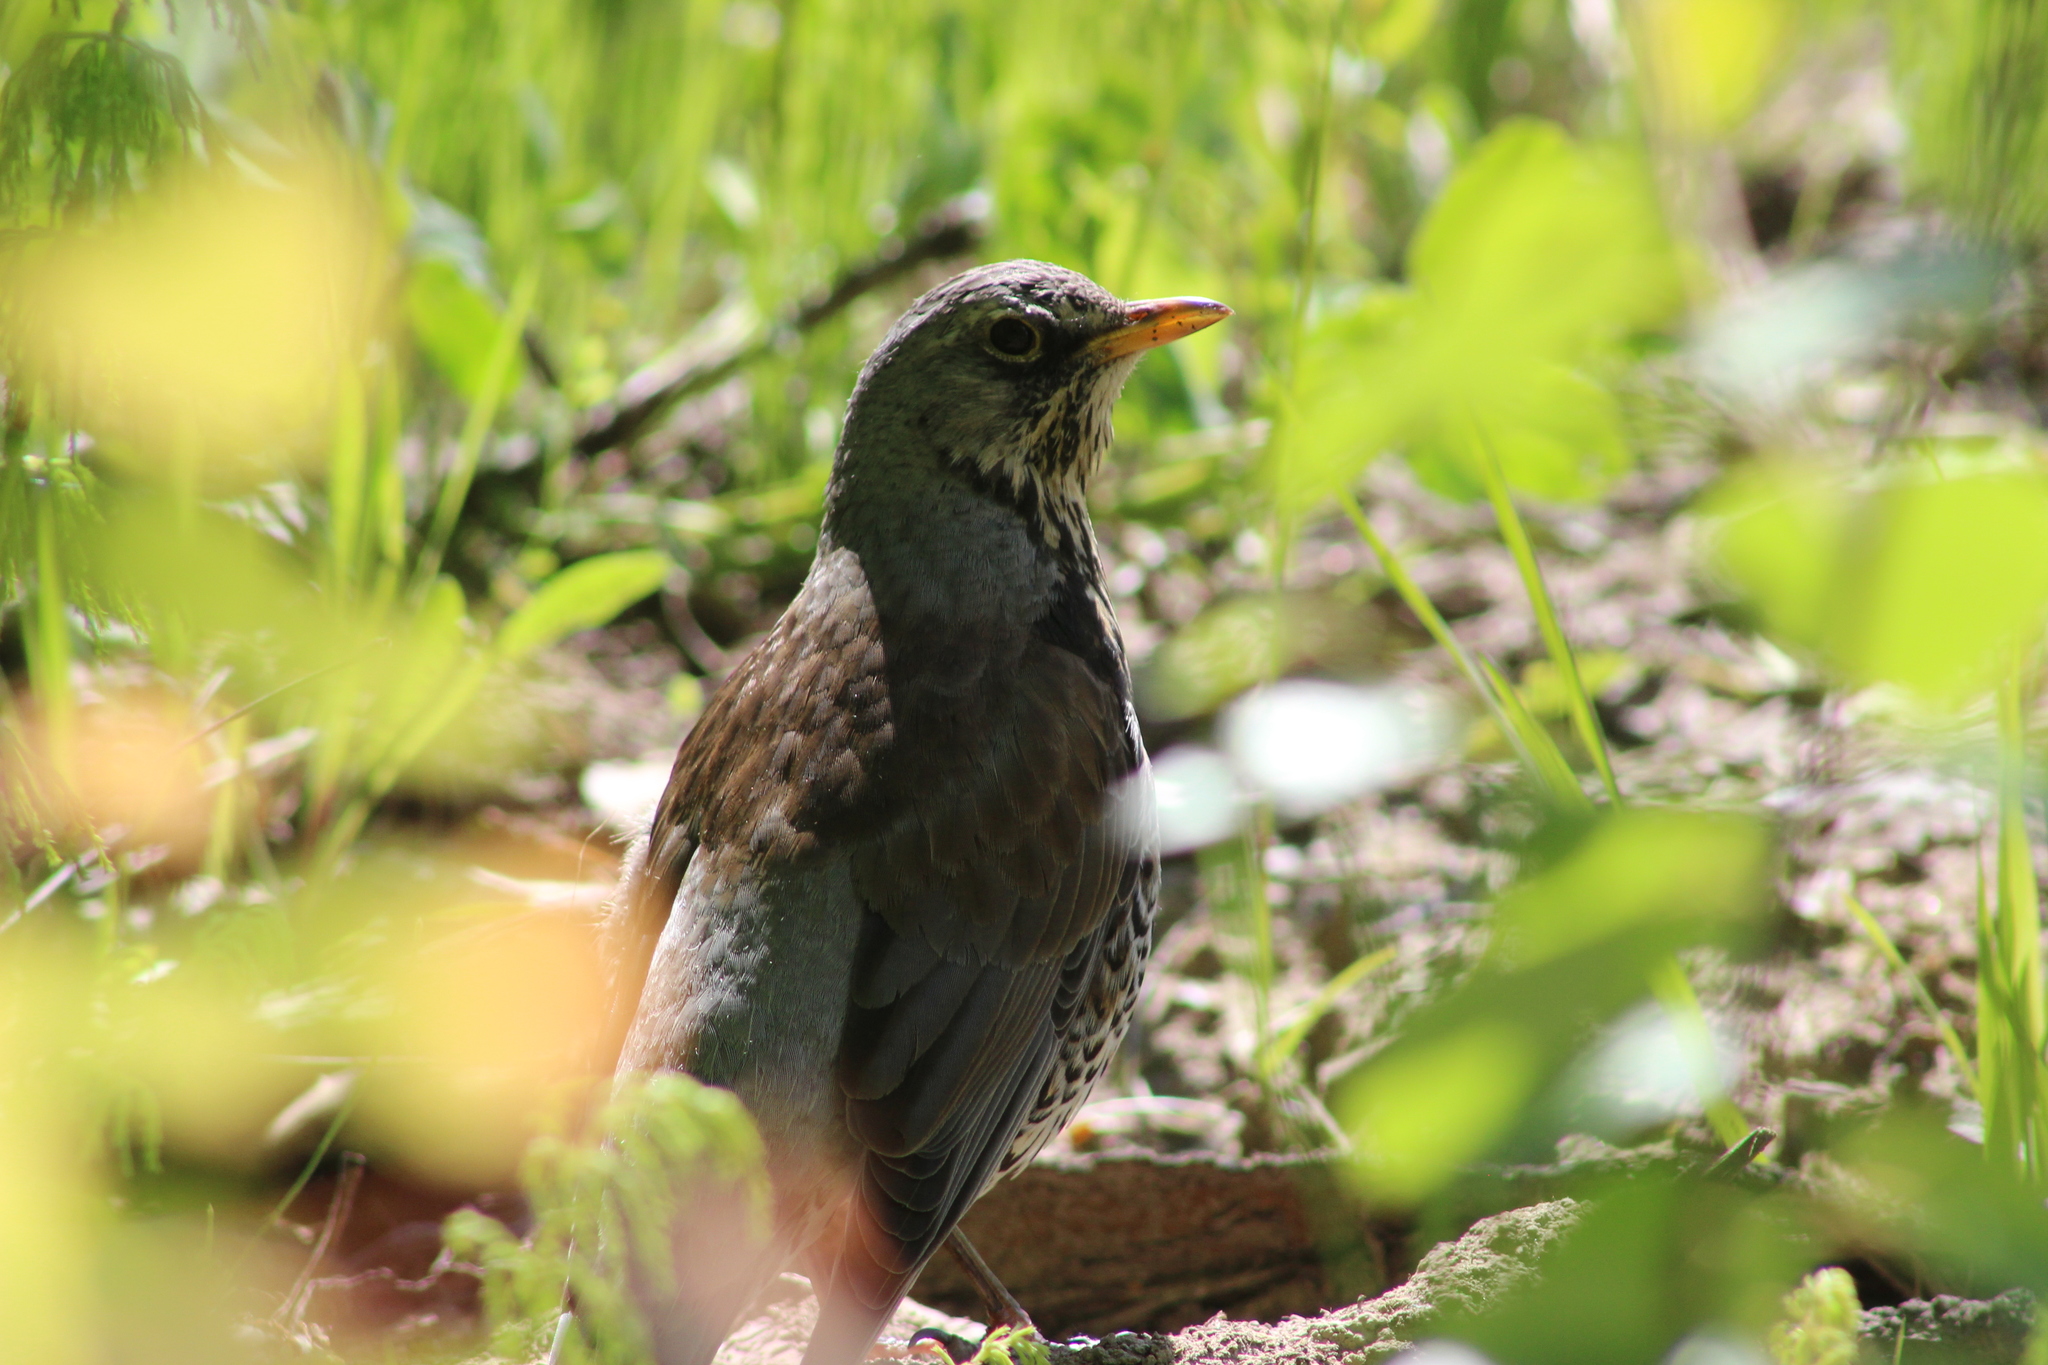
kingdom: Animalia
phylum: Chordata
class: Aves
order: Passeriformes
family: Turdidae
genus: Turdus
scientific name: Turdus pilaris
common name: Fieldfare
